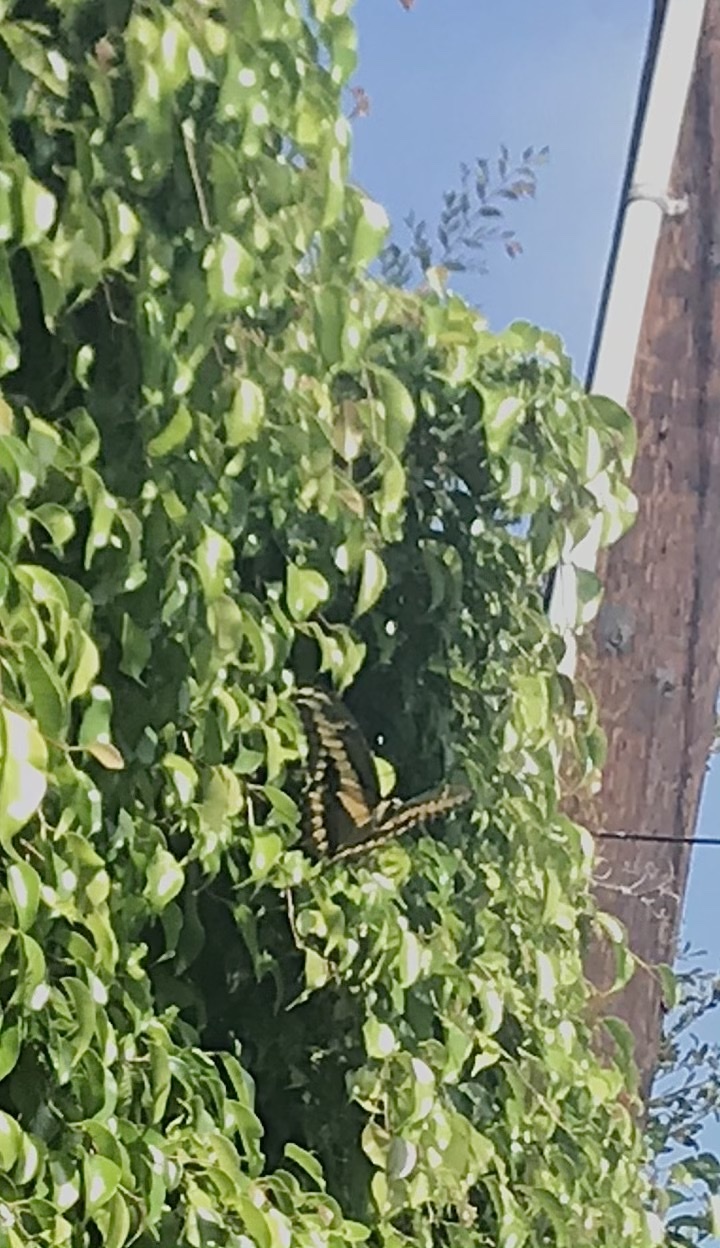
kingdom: Animalia
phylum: Arthropoda
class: Insecta
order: Lepidoptera
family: Papilionidae
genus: Papilio
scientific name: Papilio rumiko
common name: Western giant swallowtail
